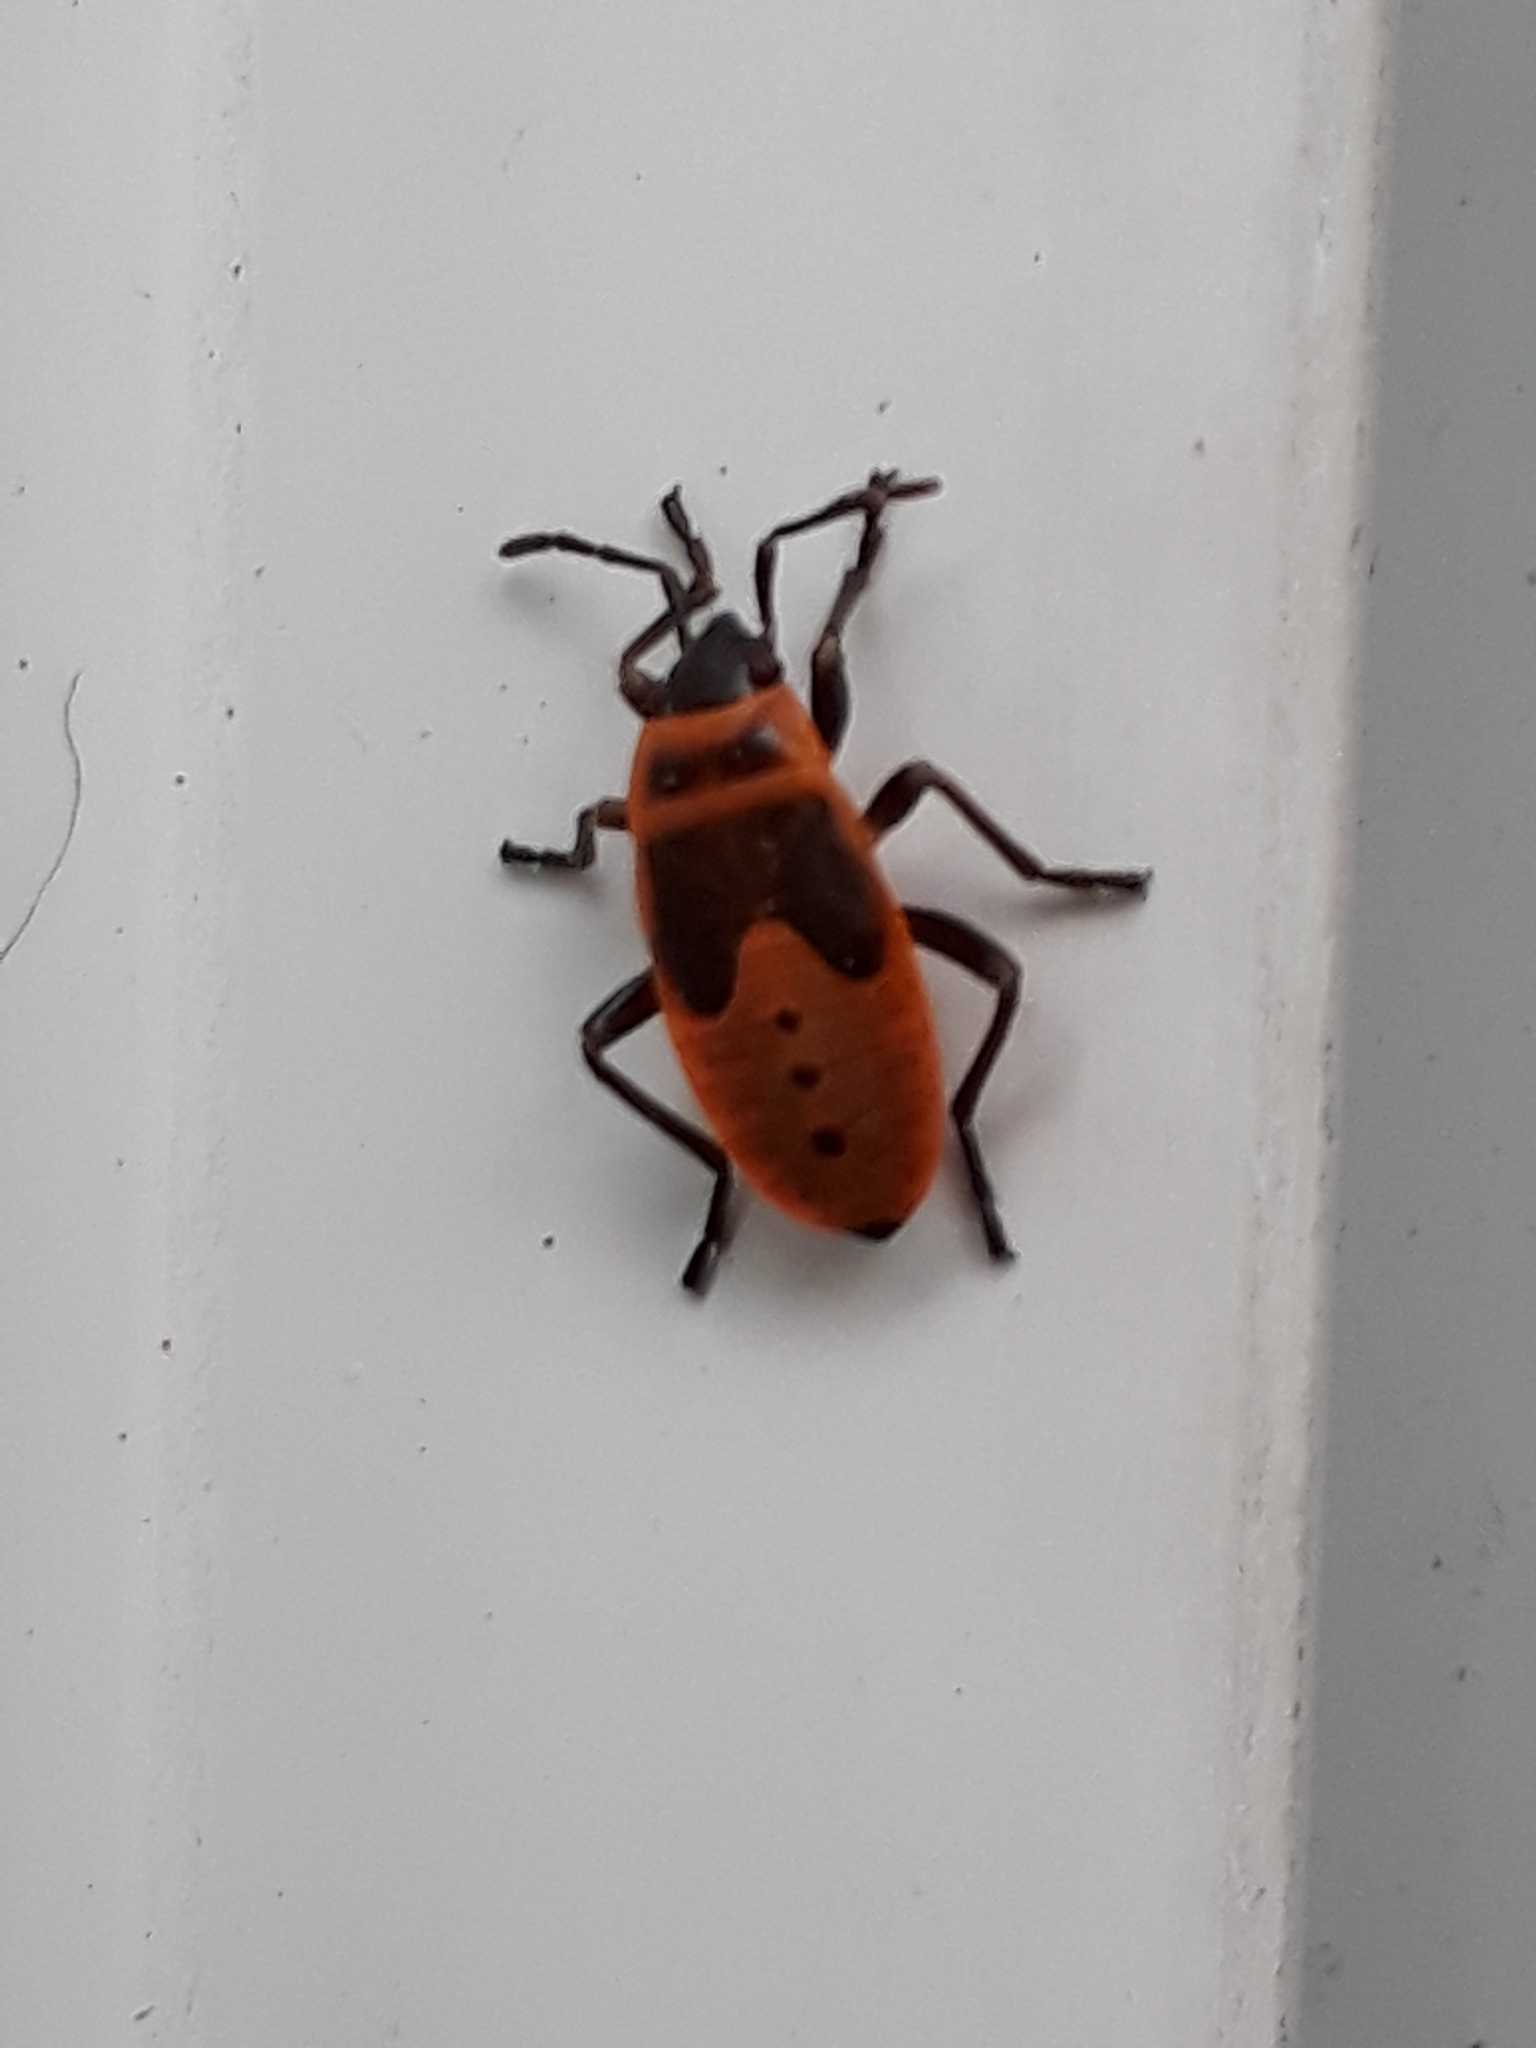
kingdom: Animalia
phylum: Arthropoda
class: Insecta
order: Hemiptera
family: Pyrrhocoridae
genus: Pyrrhocoris
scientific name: Pyrrhocoris apterus
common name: Firebug
